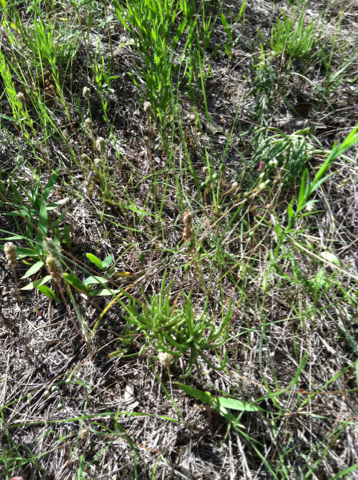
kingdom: Plantae
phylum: Tracheophyta
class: Magnoliopsida
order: Caryophyllales
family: Montiaceae
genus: Phemeranthus
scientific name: Phemeranthus parviflorus
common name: Sunbright
